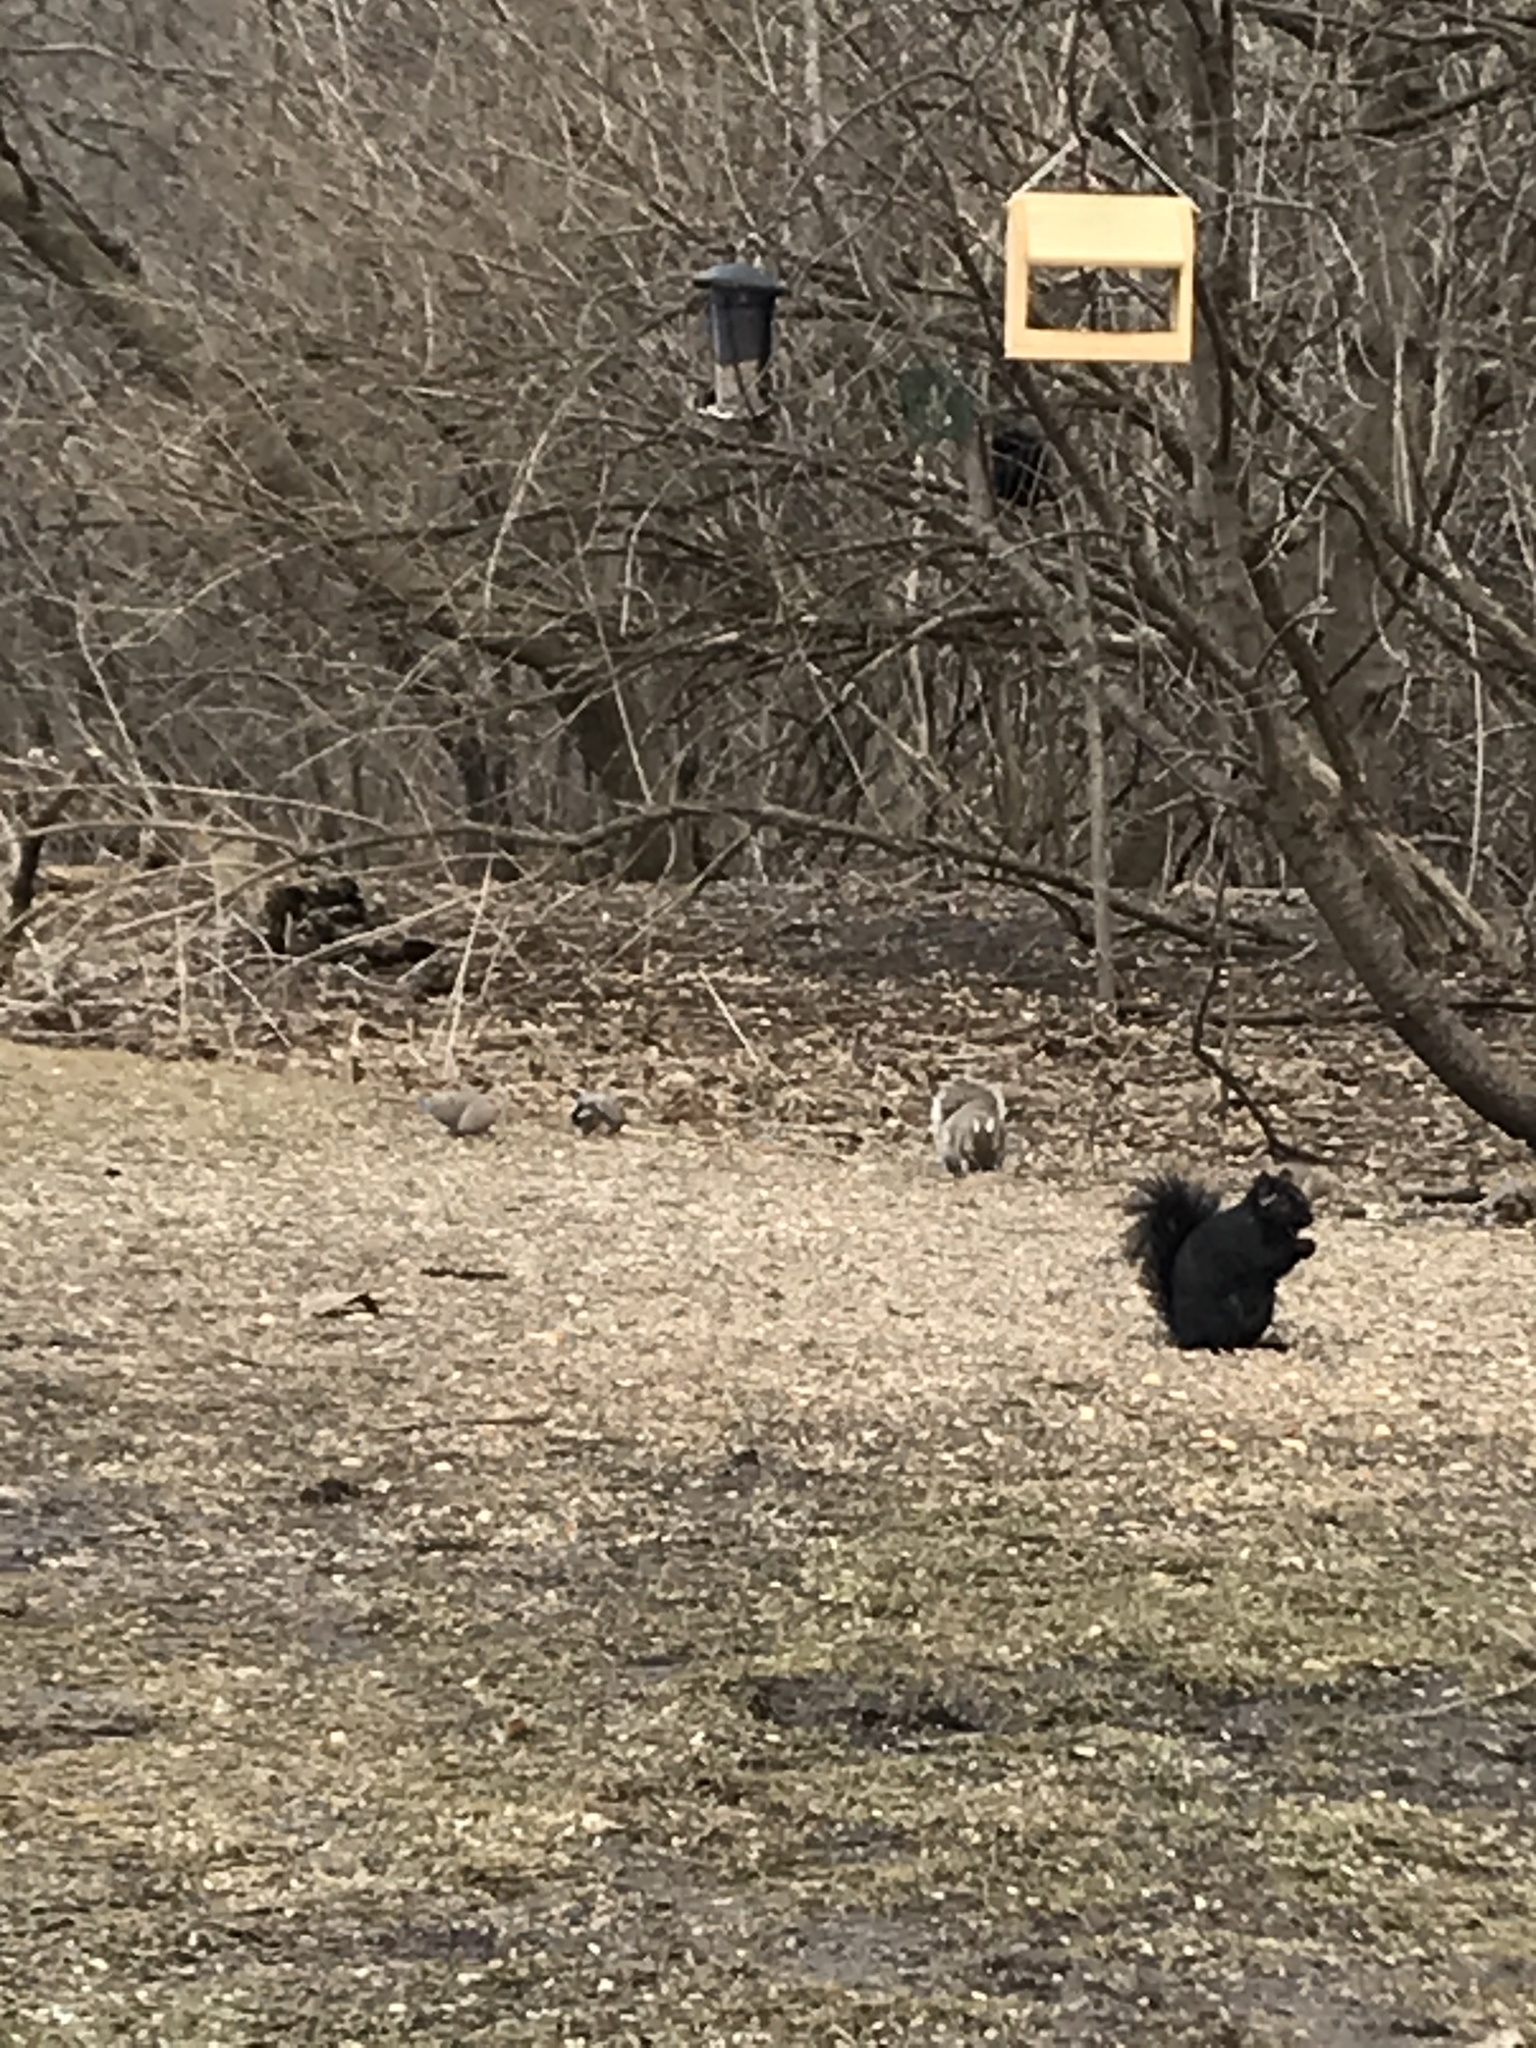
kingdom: Animalia
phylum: Chordata
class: Mammalia
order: Rodentia
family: Sciuridae
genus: Sciurus
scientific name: Sciurus carolinensis
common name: Eastern gray squirrel
